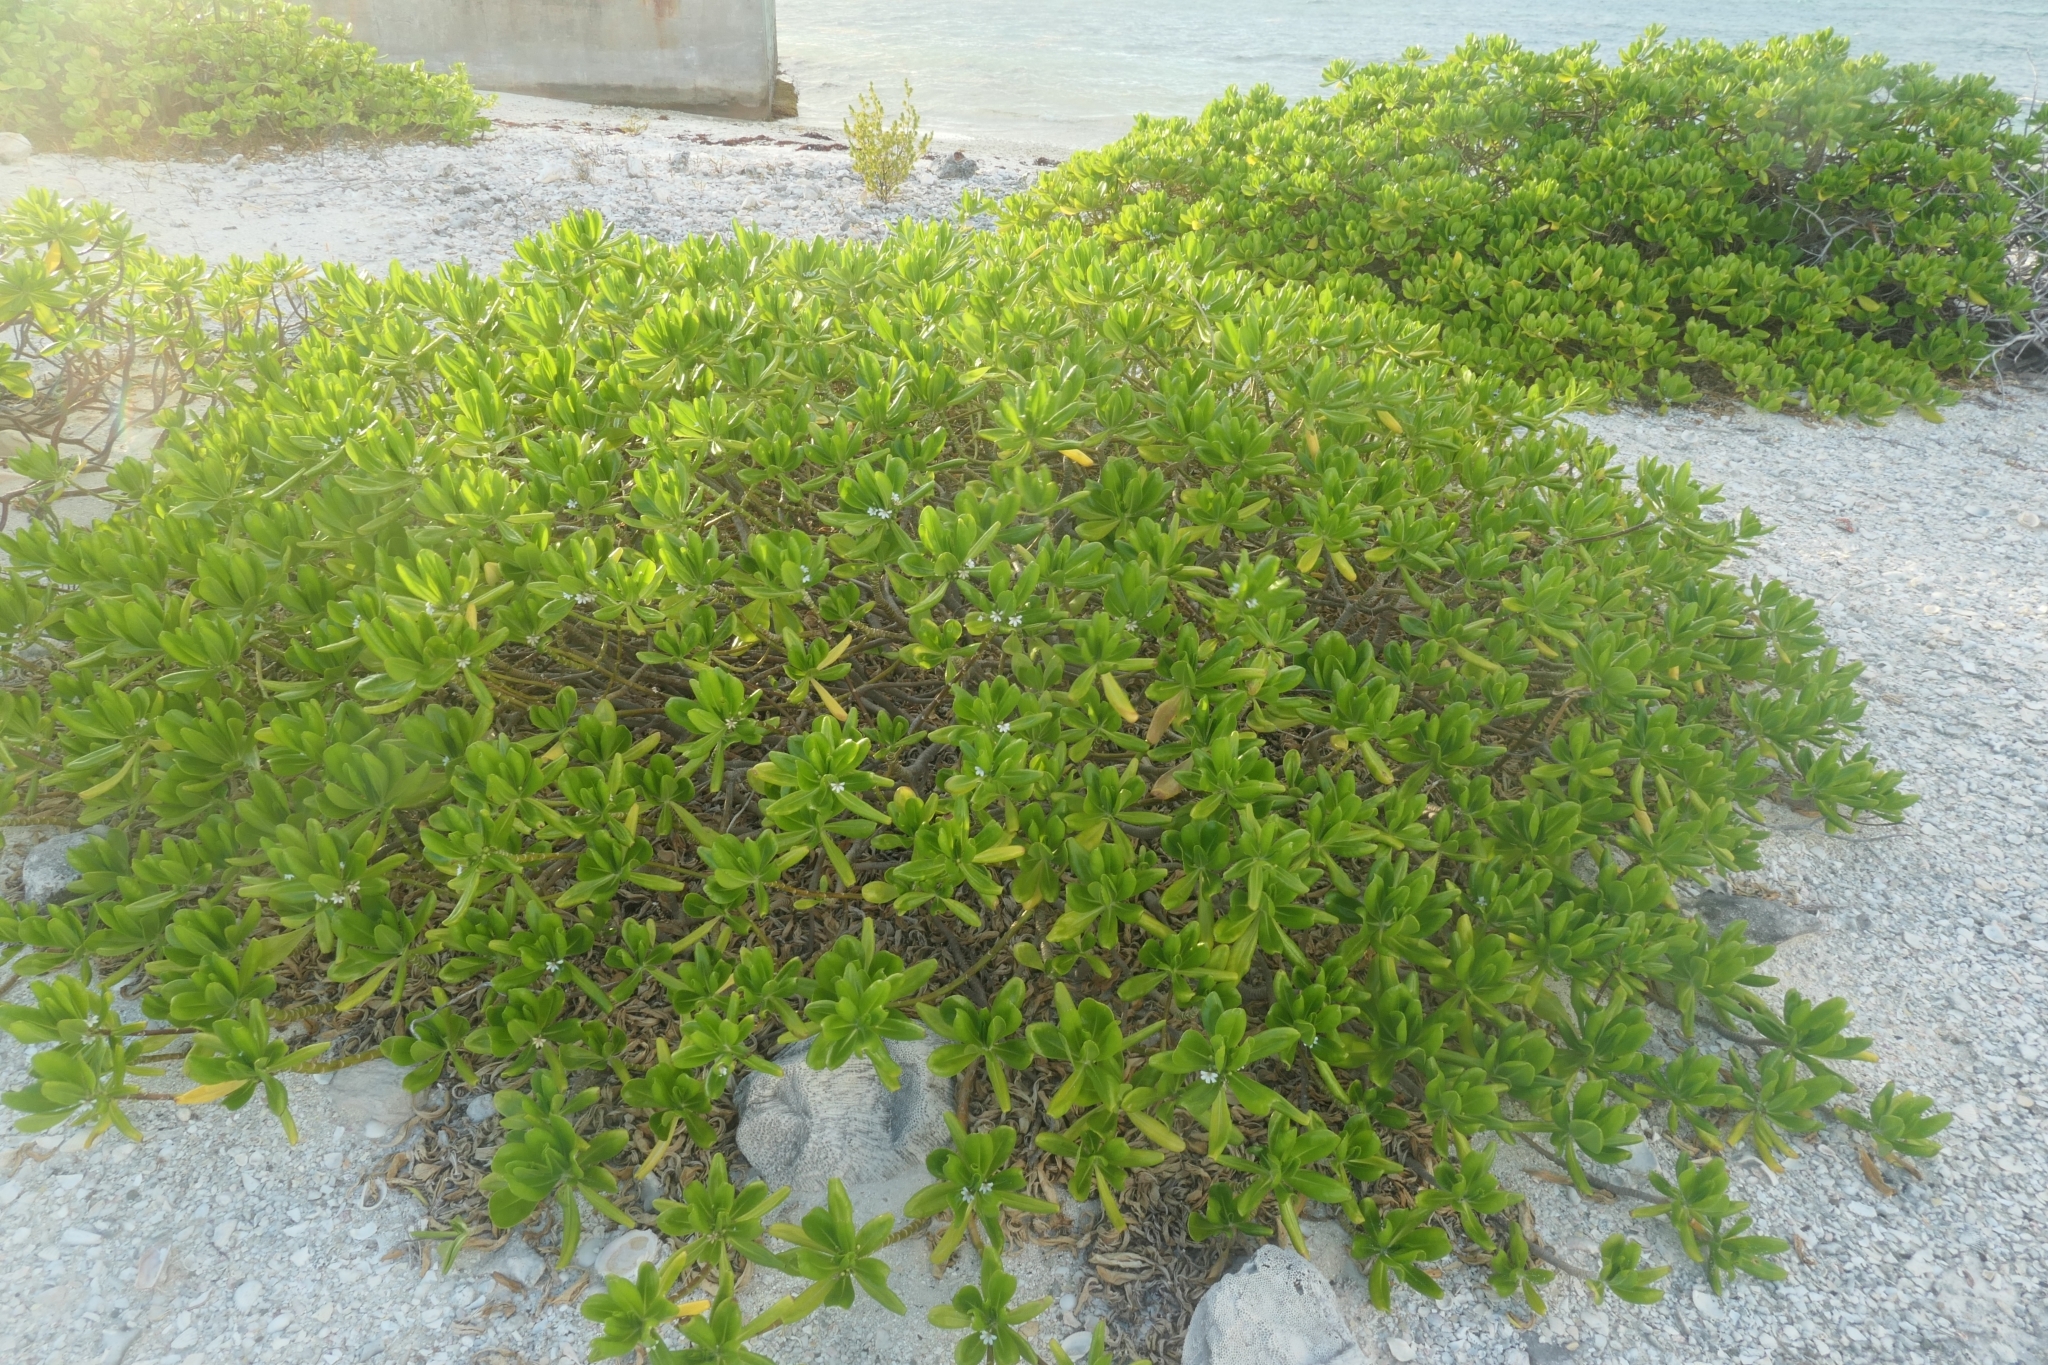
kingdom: Plantae
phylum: Tracheophyta
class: Magnoliopsida
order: Asterales
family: Goodeniaceae
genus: Scaevola
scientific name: Scaevola taccada
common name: Sea lettucetree
